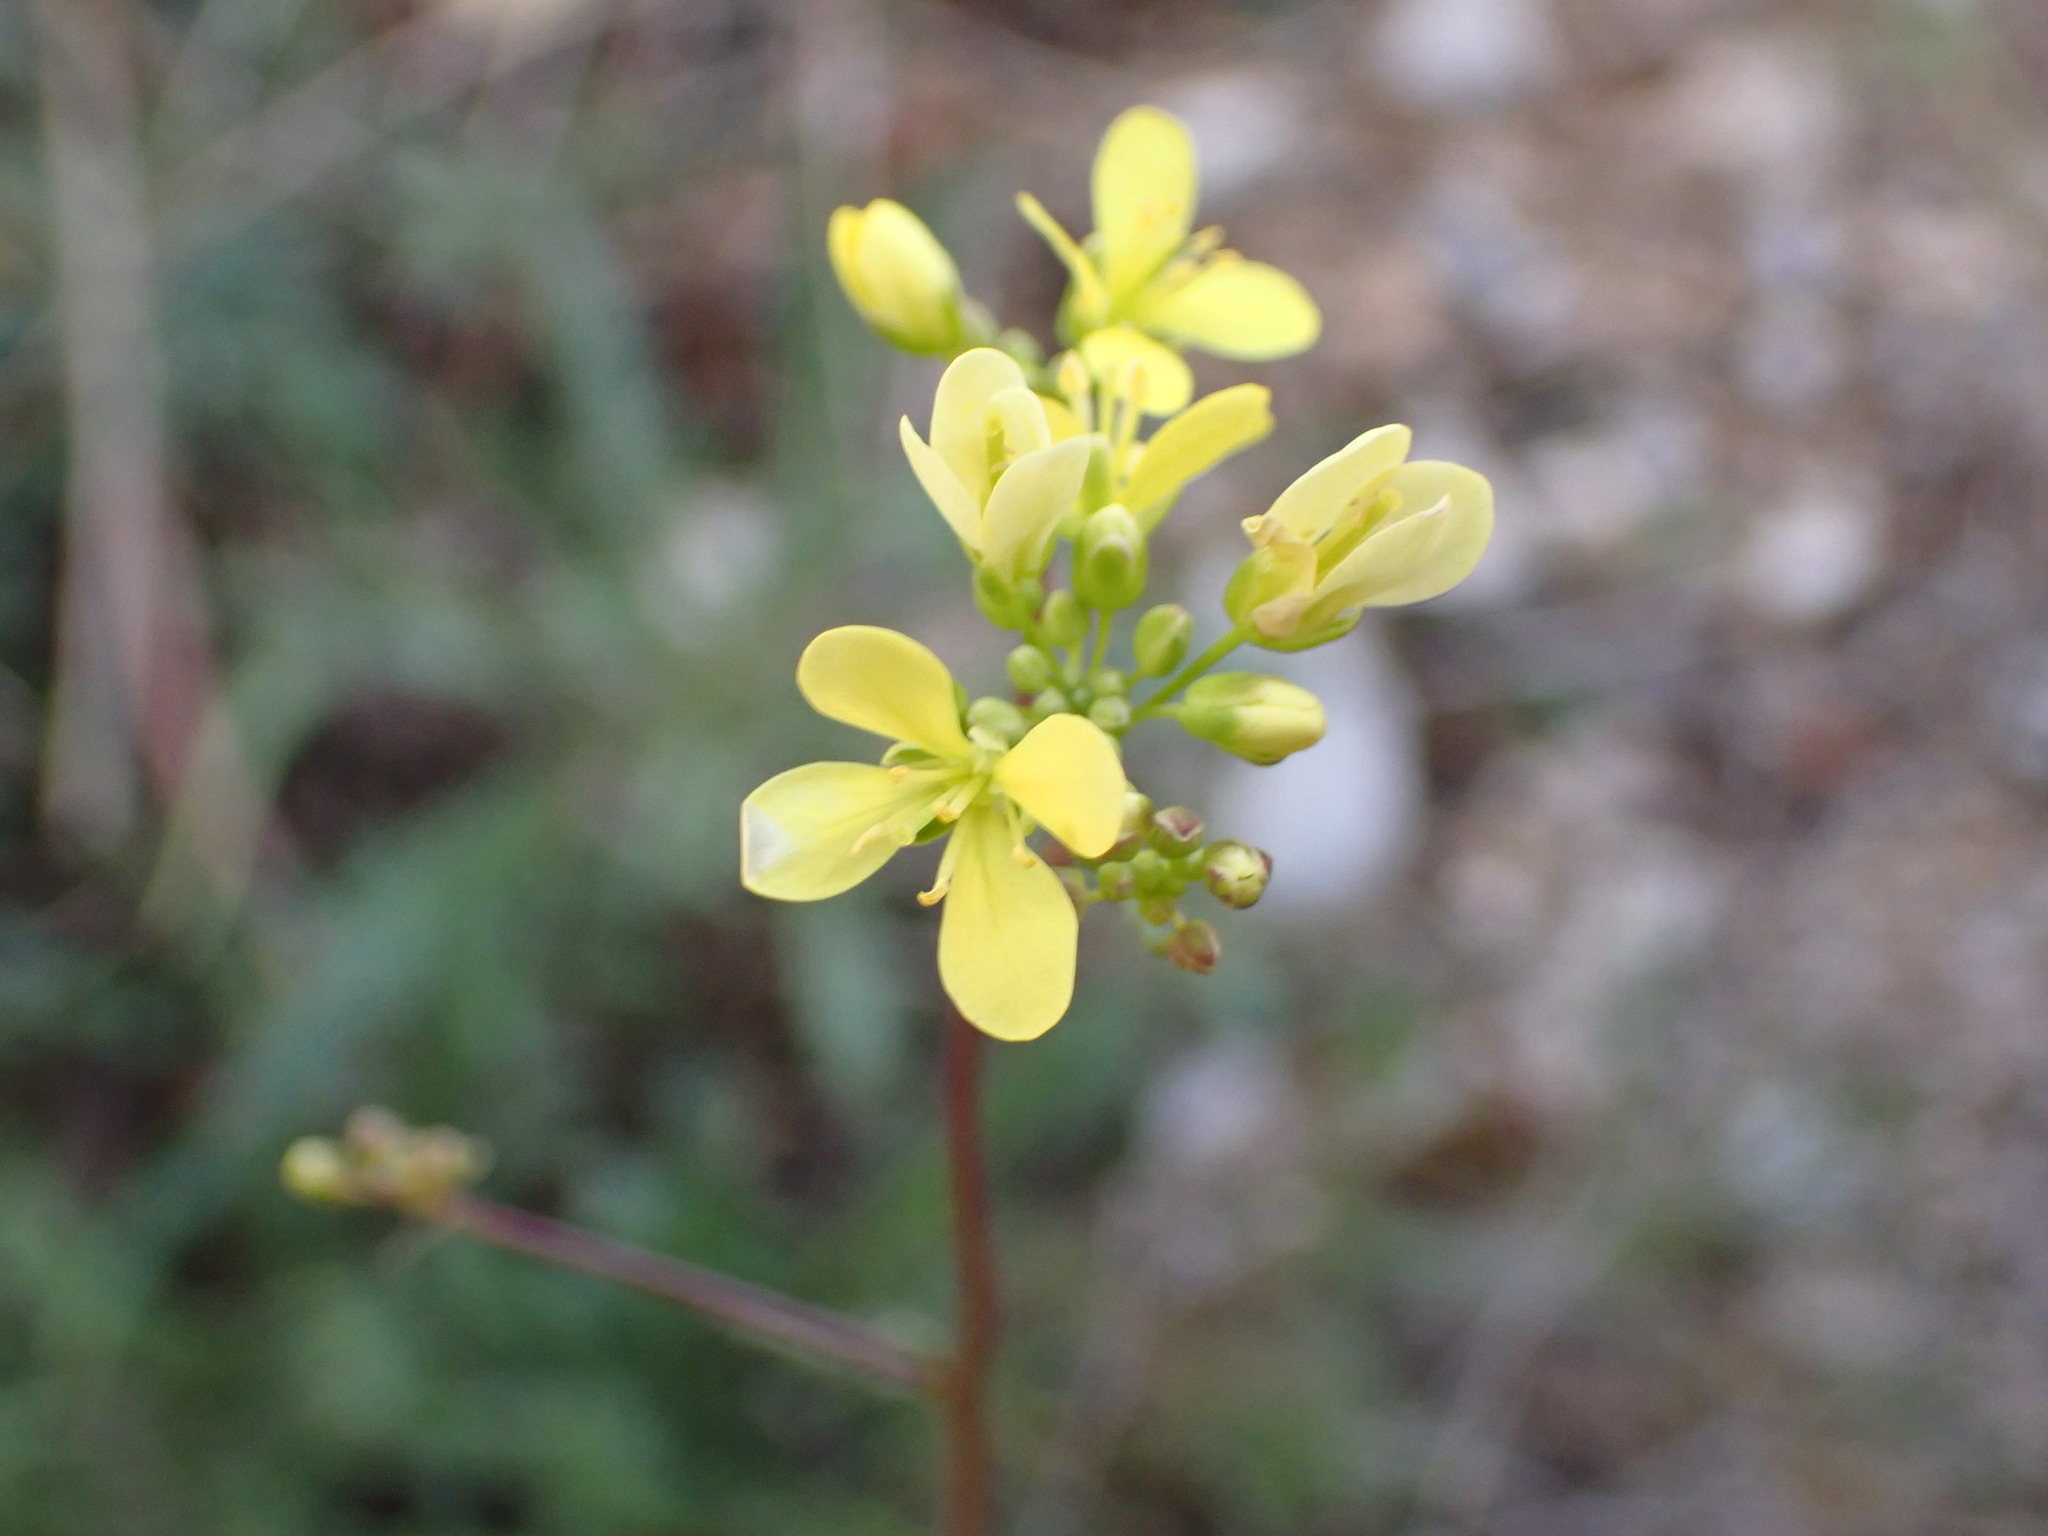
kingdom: Plantae
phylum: Tracheophyta
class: Magnoliopsida
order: Brassicales
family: Brassicaceae
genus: Biscutella
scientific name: Biscutella laevigata
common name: Buckler mustard
